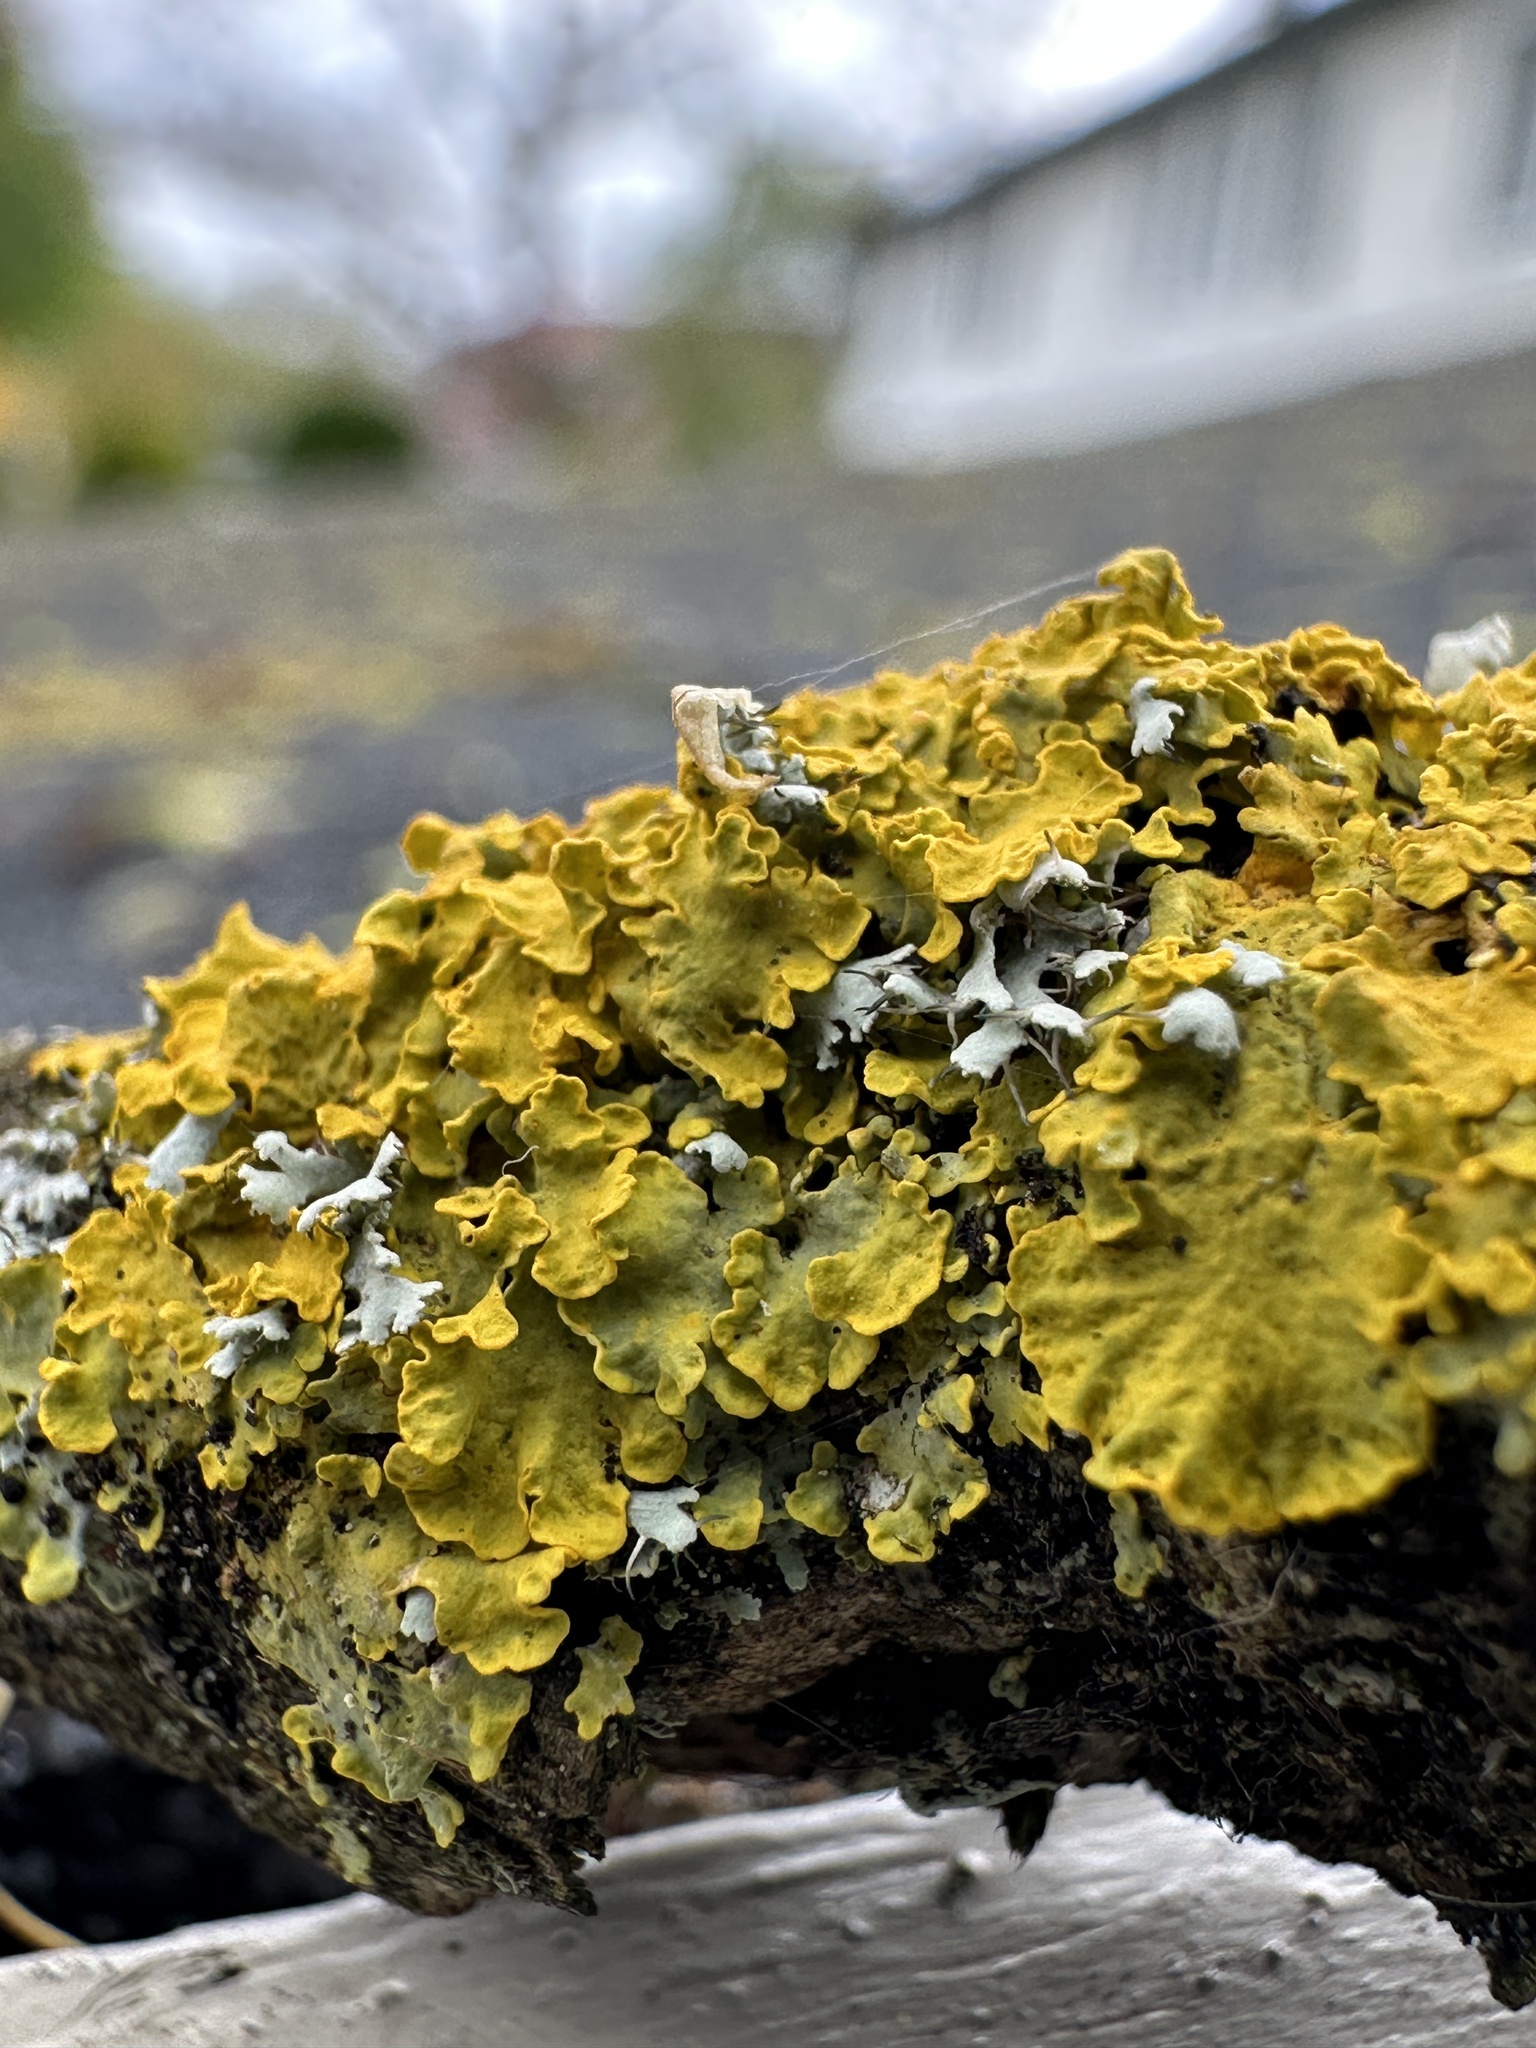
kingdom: Fungi
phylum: Ascomycota
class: Lecanoromycetes
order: Teloschistales
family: Teloschistaceae
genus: Xanthoria
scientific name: Xanthoria parietina
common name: Common orange lichen
